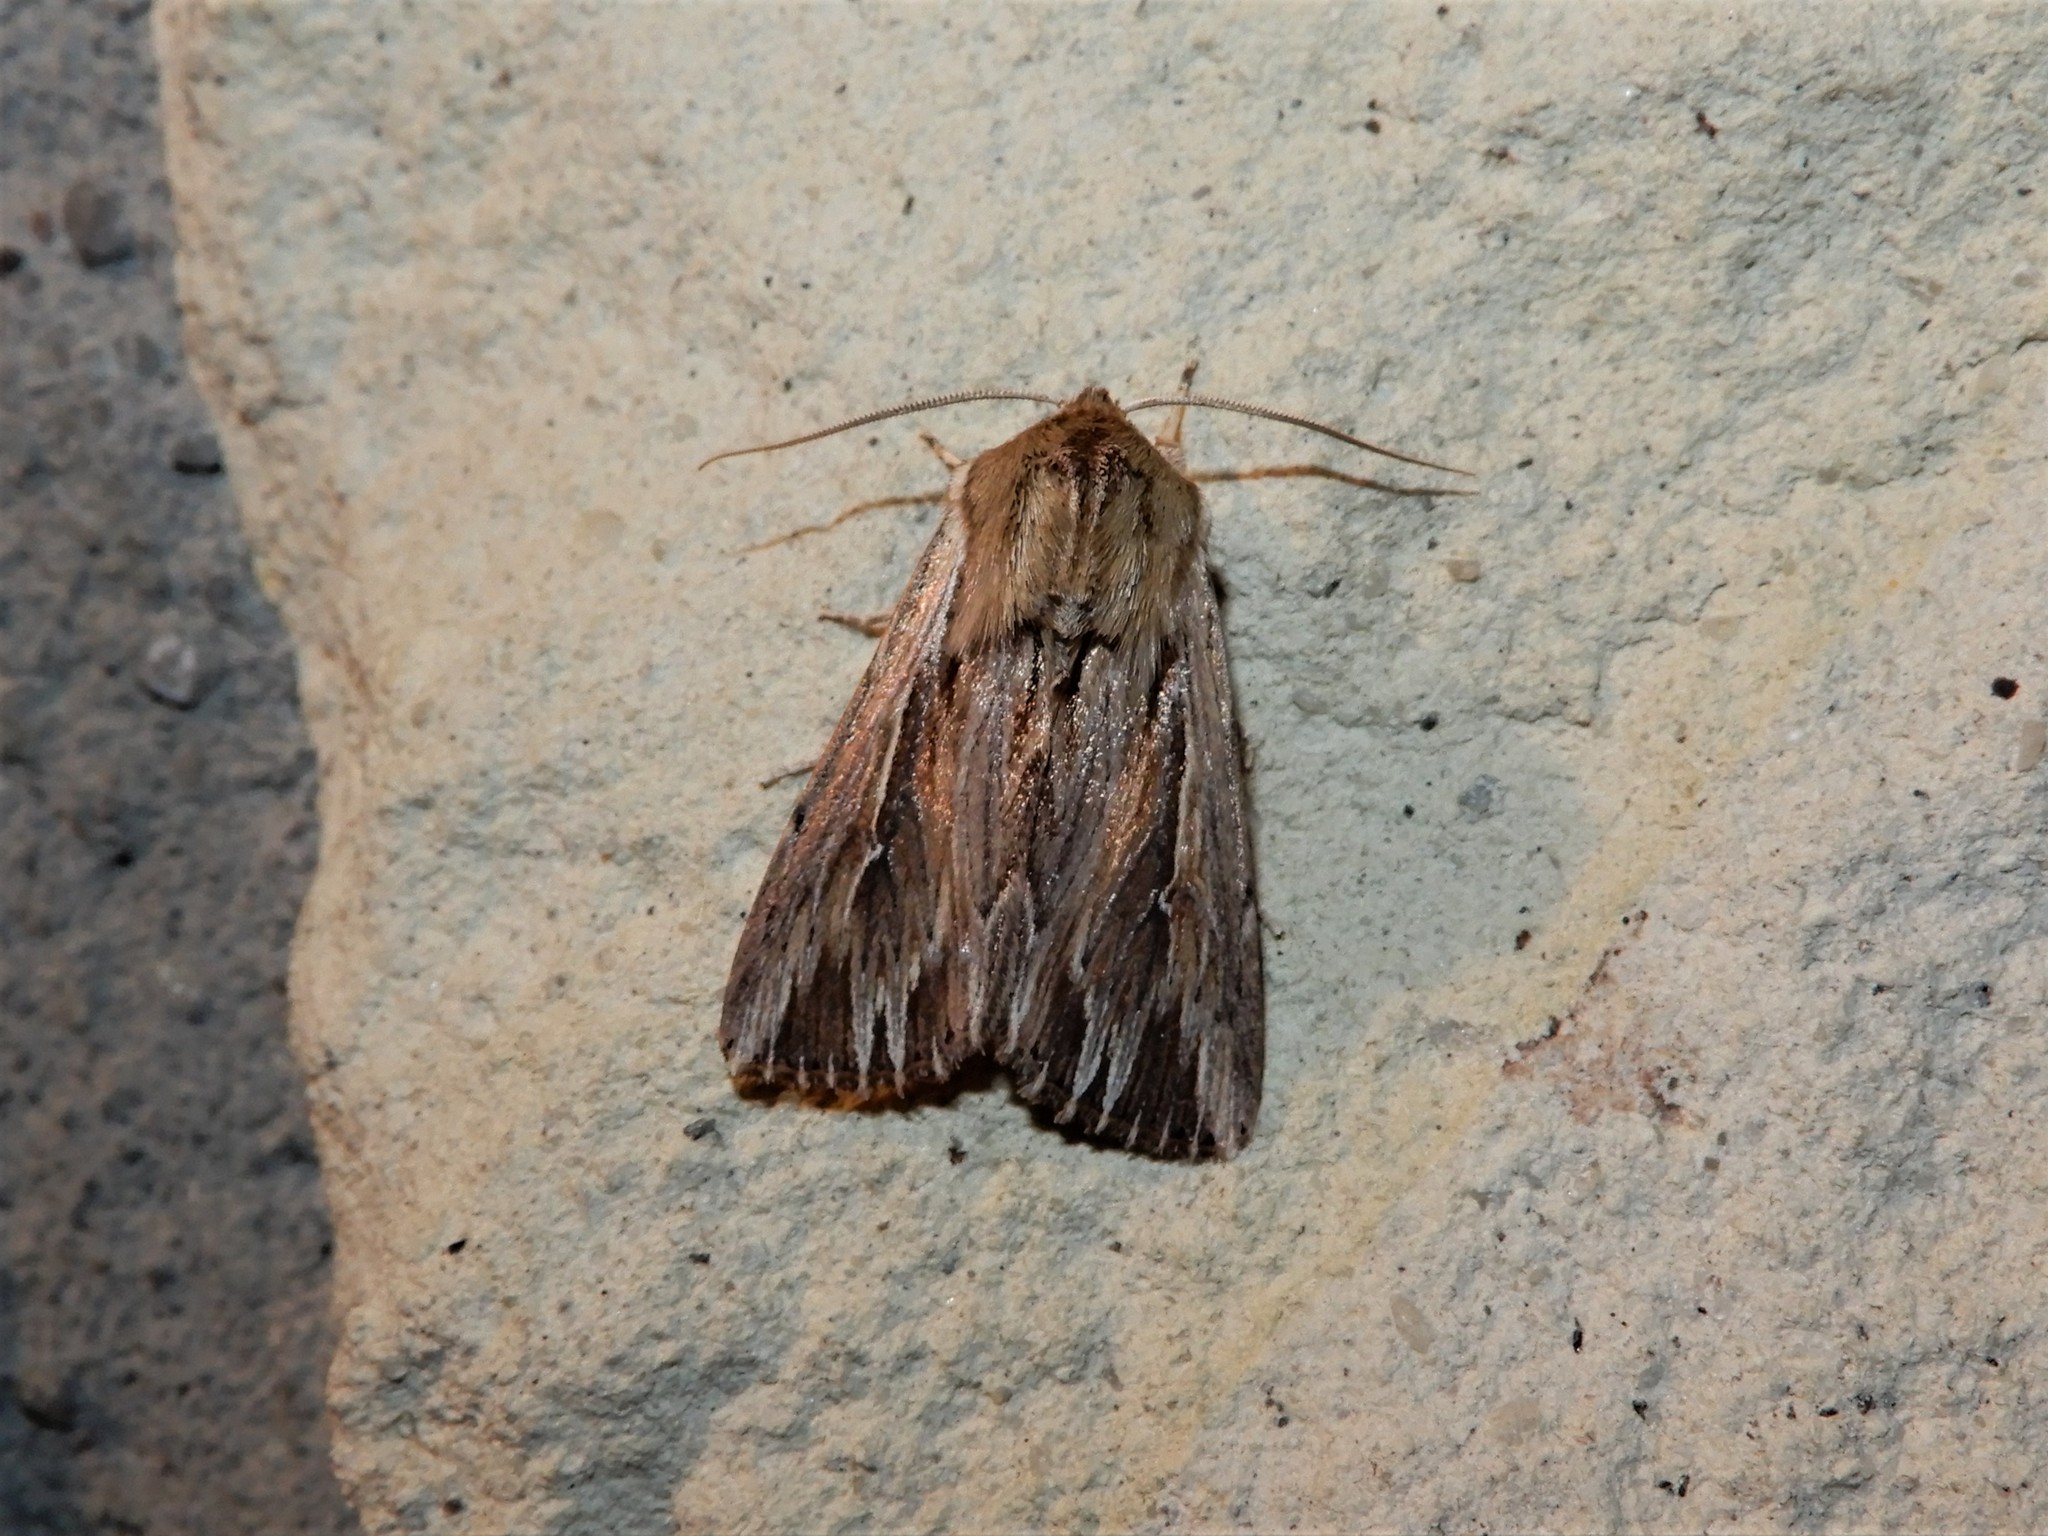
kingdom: Animalia
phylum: Arthropoda
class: Insecta
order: Lepidoptera
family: Noctuidae
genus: Persectania
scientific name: Persectania aversa
